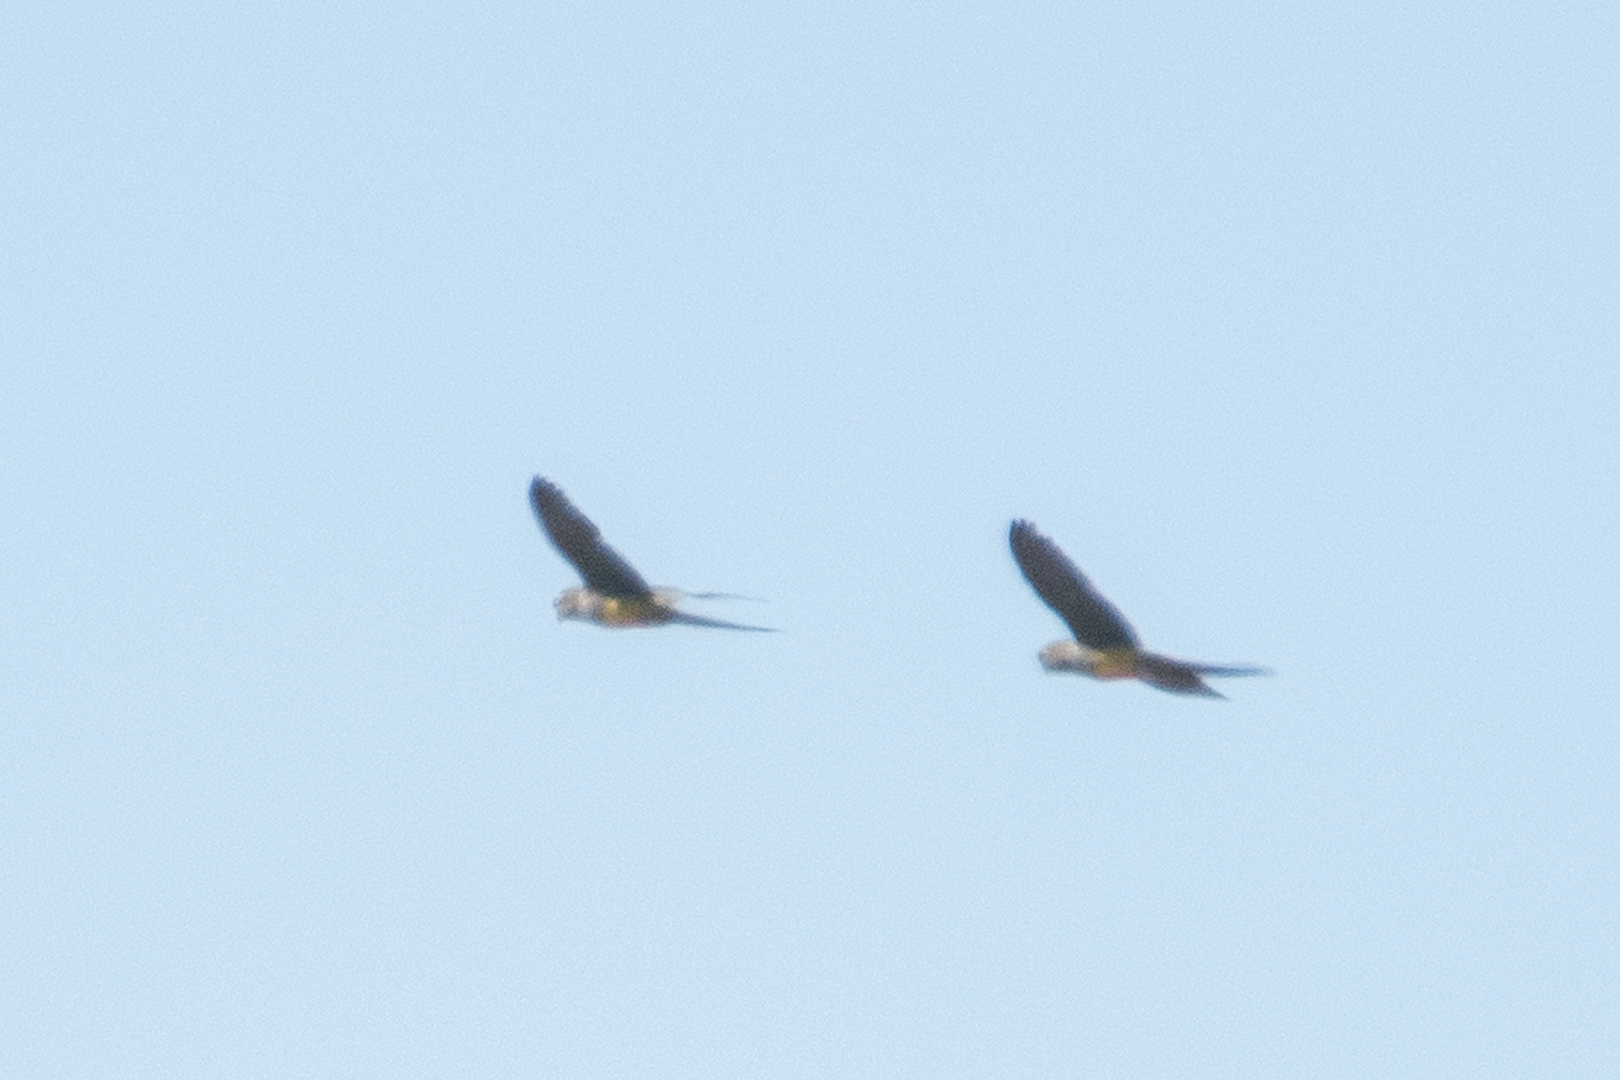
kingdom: Animalia
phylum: Chordata
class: Aves
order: Psittaciformes
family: Psittacidae
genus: Cyanoliseus
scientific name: Cyanoliseus patagonus
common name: Burrowing parrot
